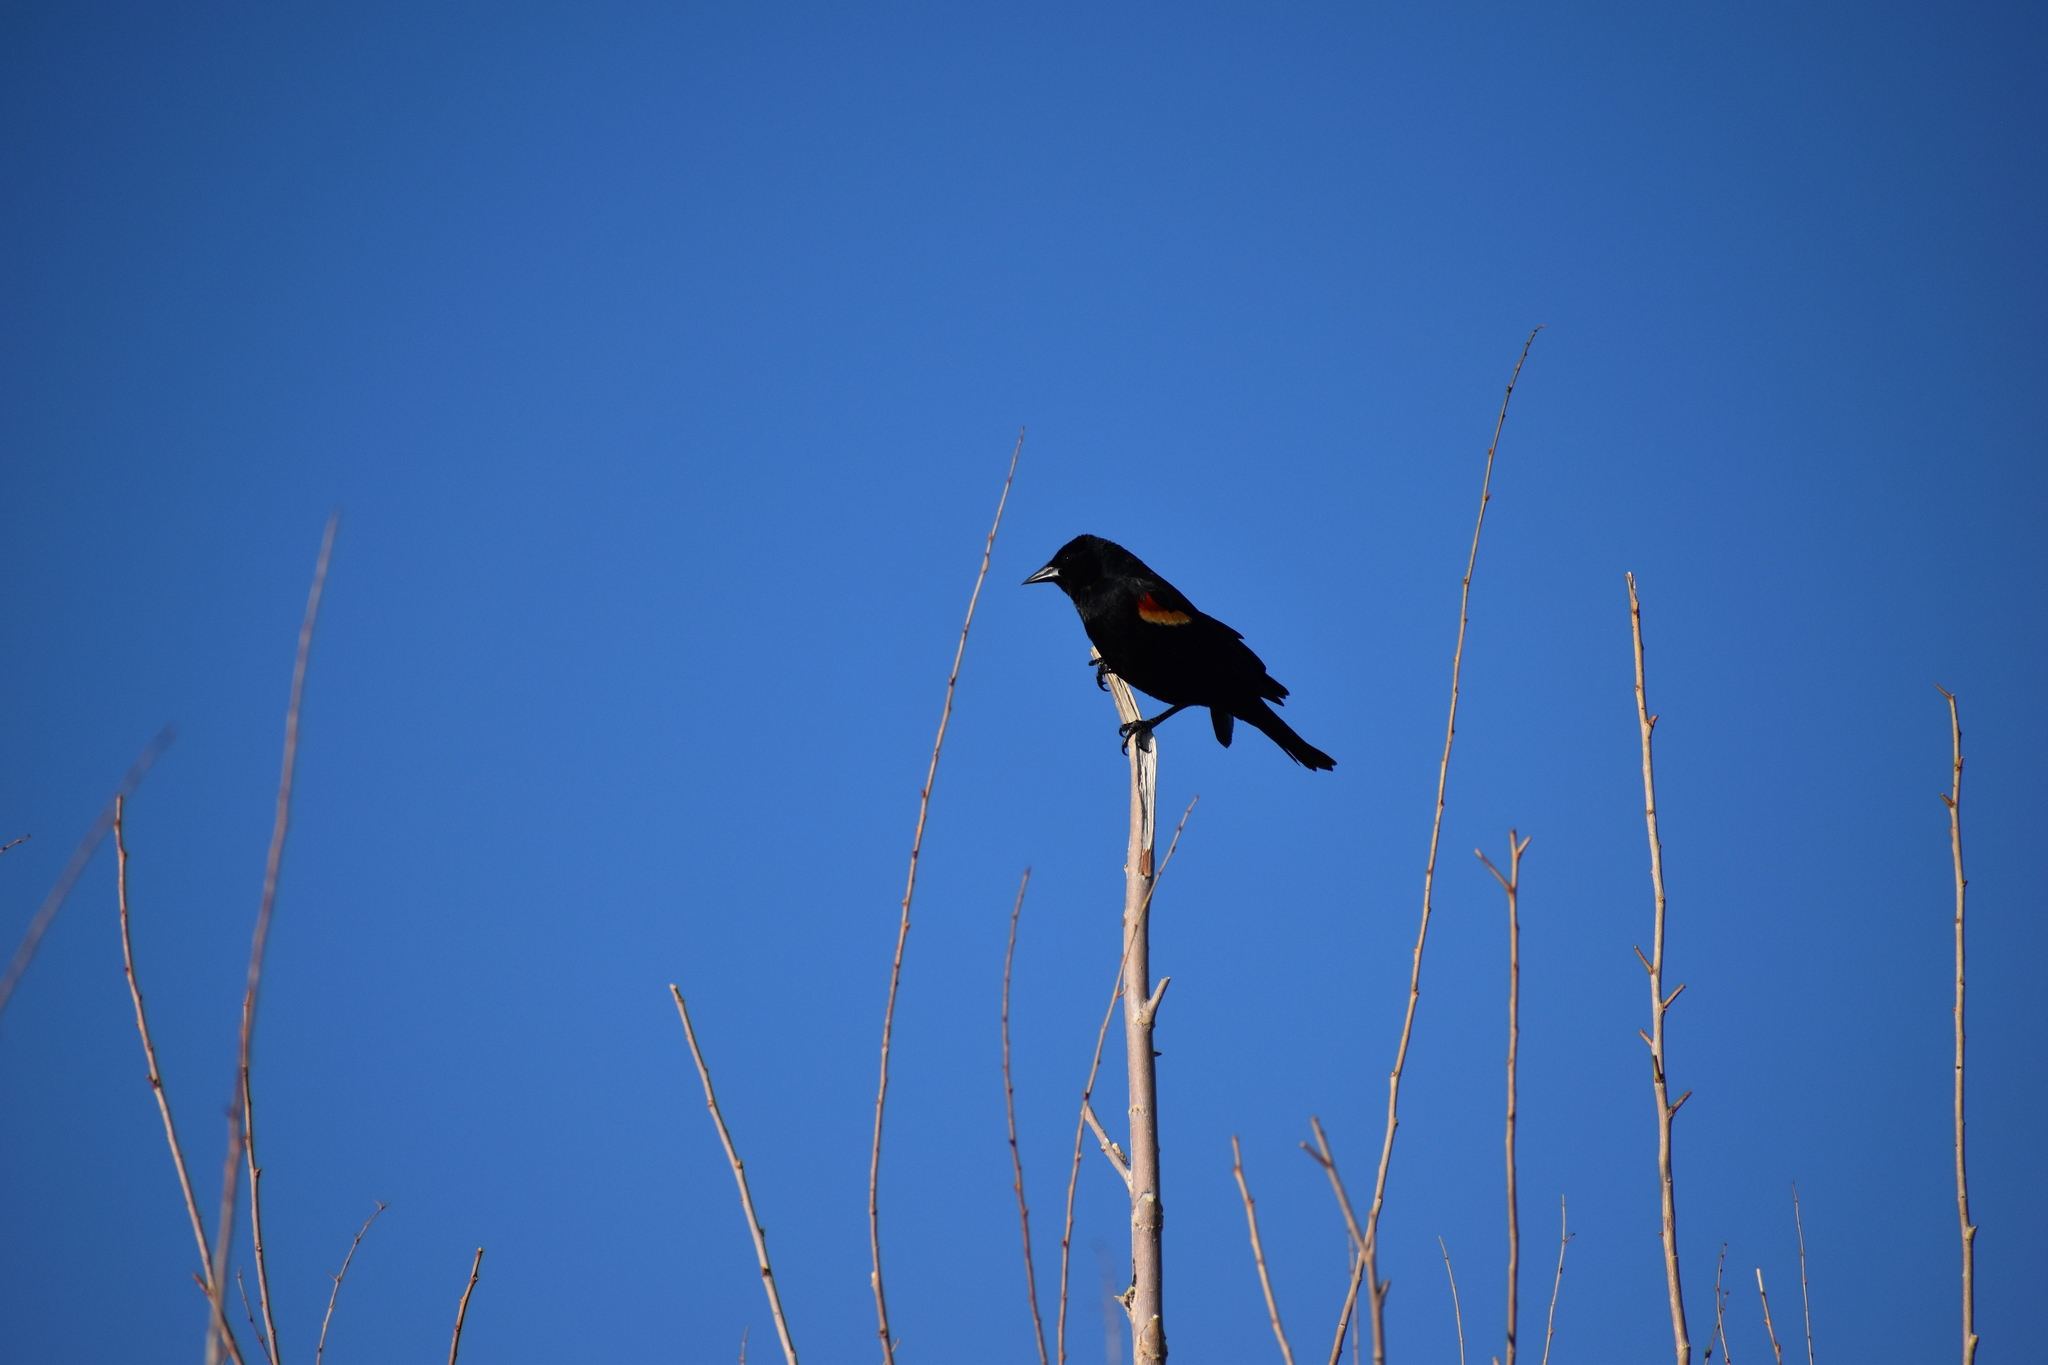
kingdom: Animalia
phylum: Chordata
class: Aves
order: Passeriformes
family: Icteridae
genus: Agelaius
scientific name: Agelaius phoeniceus
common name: Red-winged blackbird
